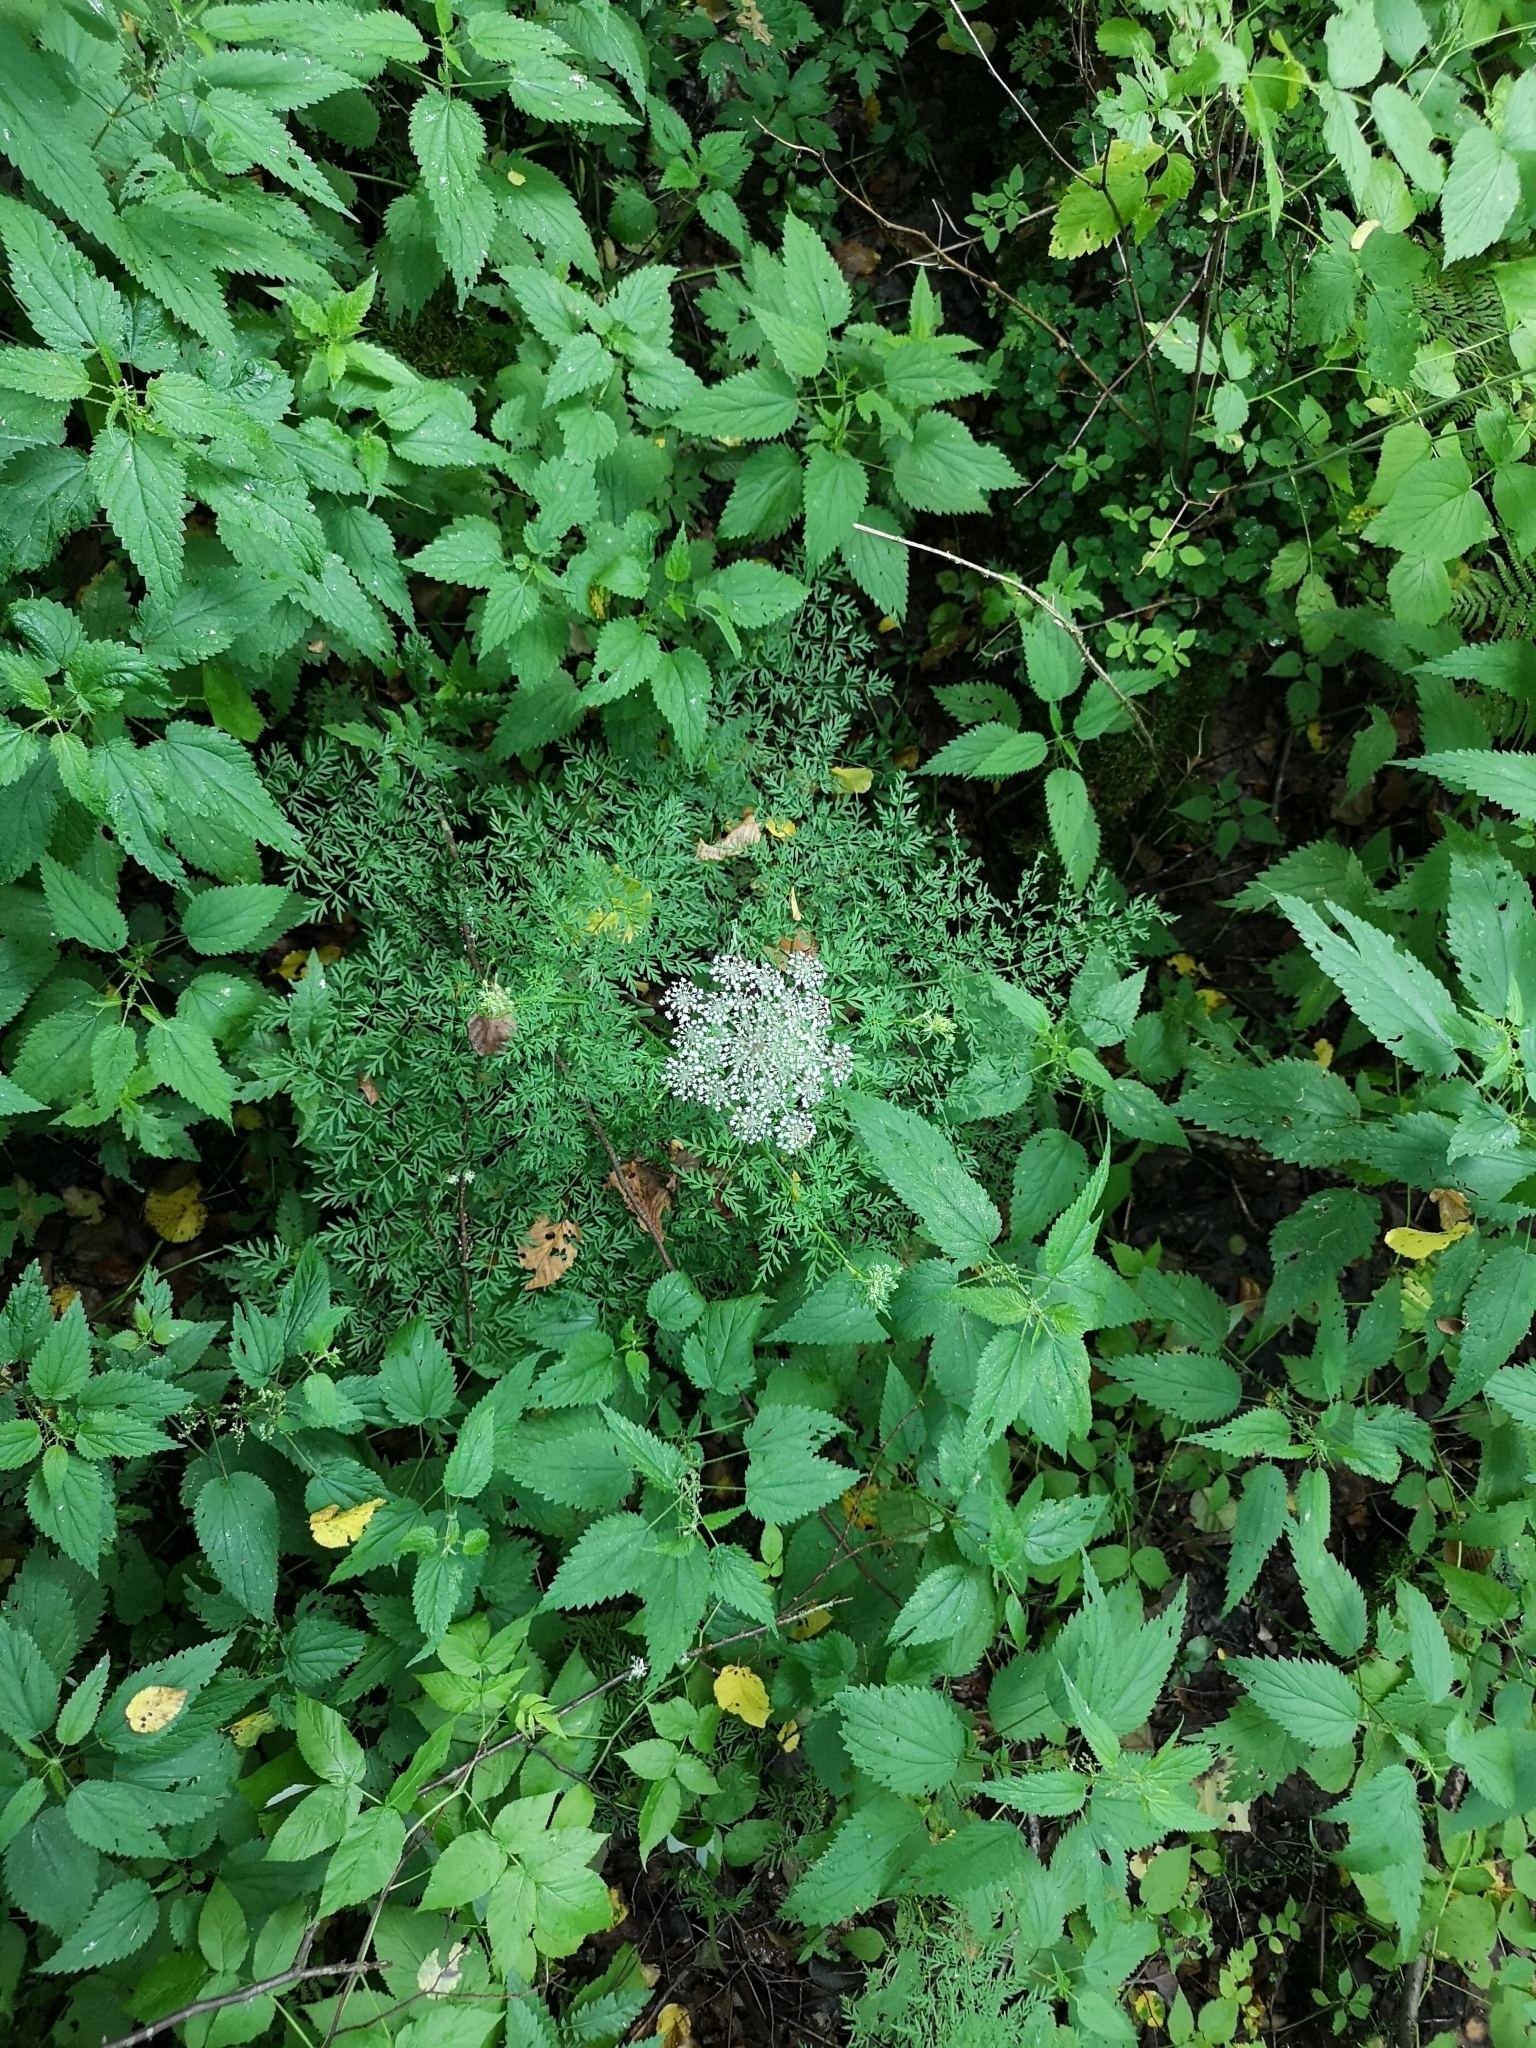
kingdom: Plantae
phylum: Tracheophyta
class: Magnoliopsida
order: Apiales
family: Apiaceae
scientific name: Apiaceae
